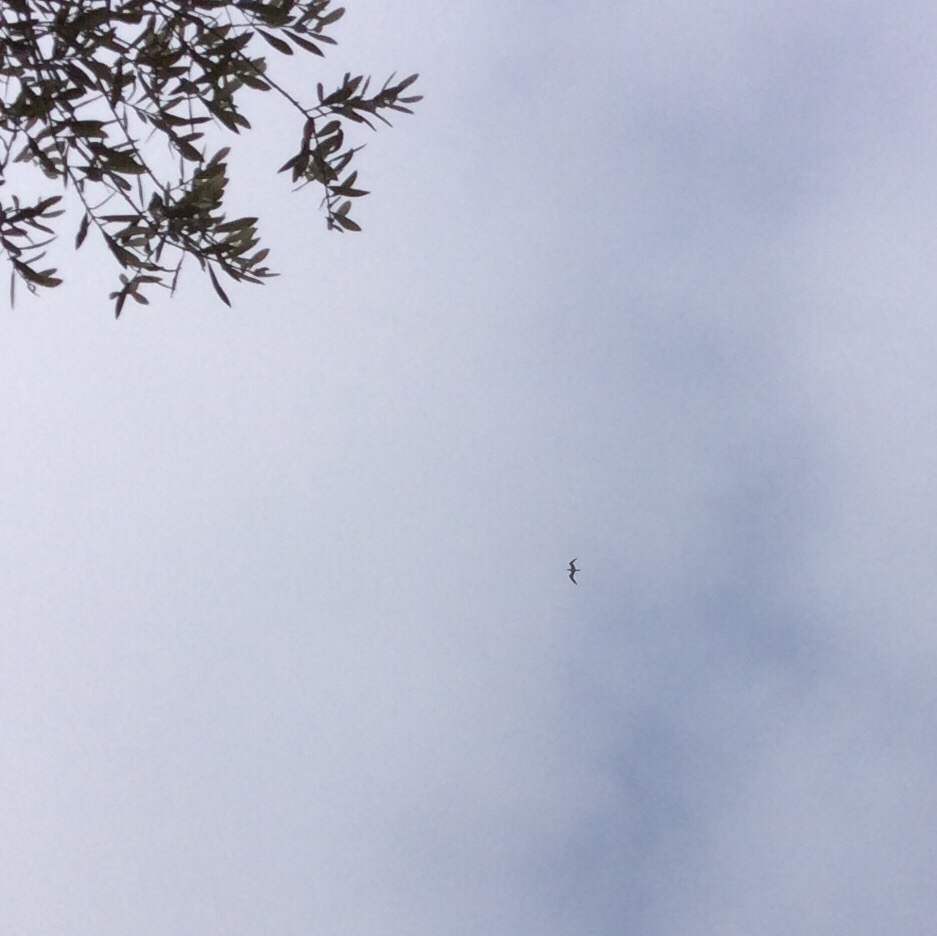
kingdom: Animalia
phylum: Chordata
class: Aves
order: Charadriiformes
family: Laridae
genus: Hydroprogne
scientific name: Hydroprogne caspia
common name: Caspian tern
